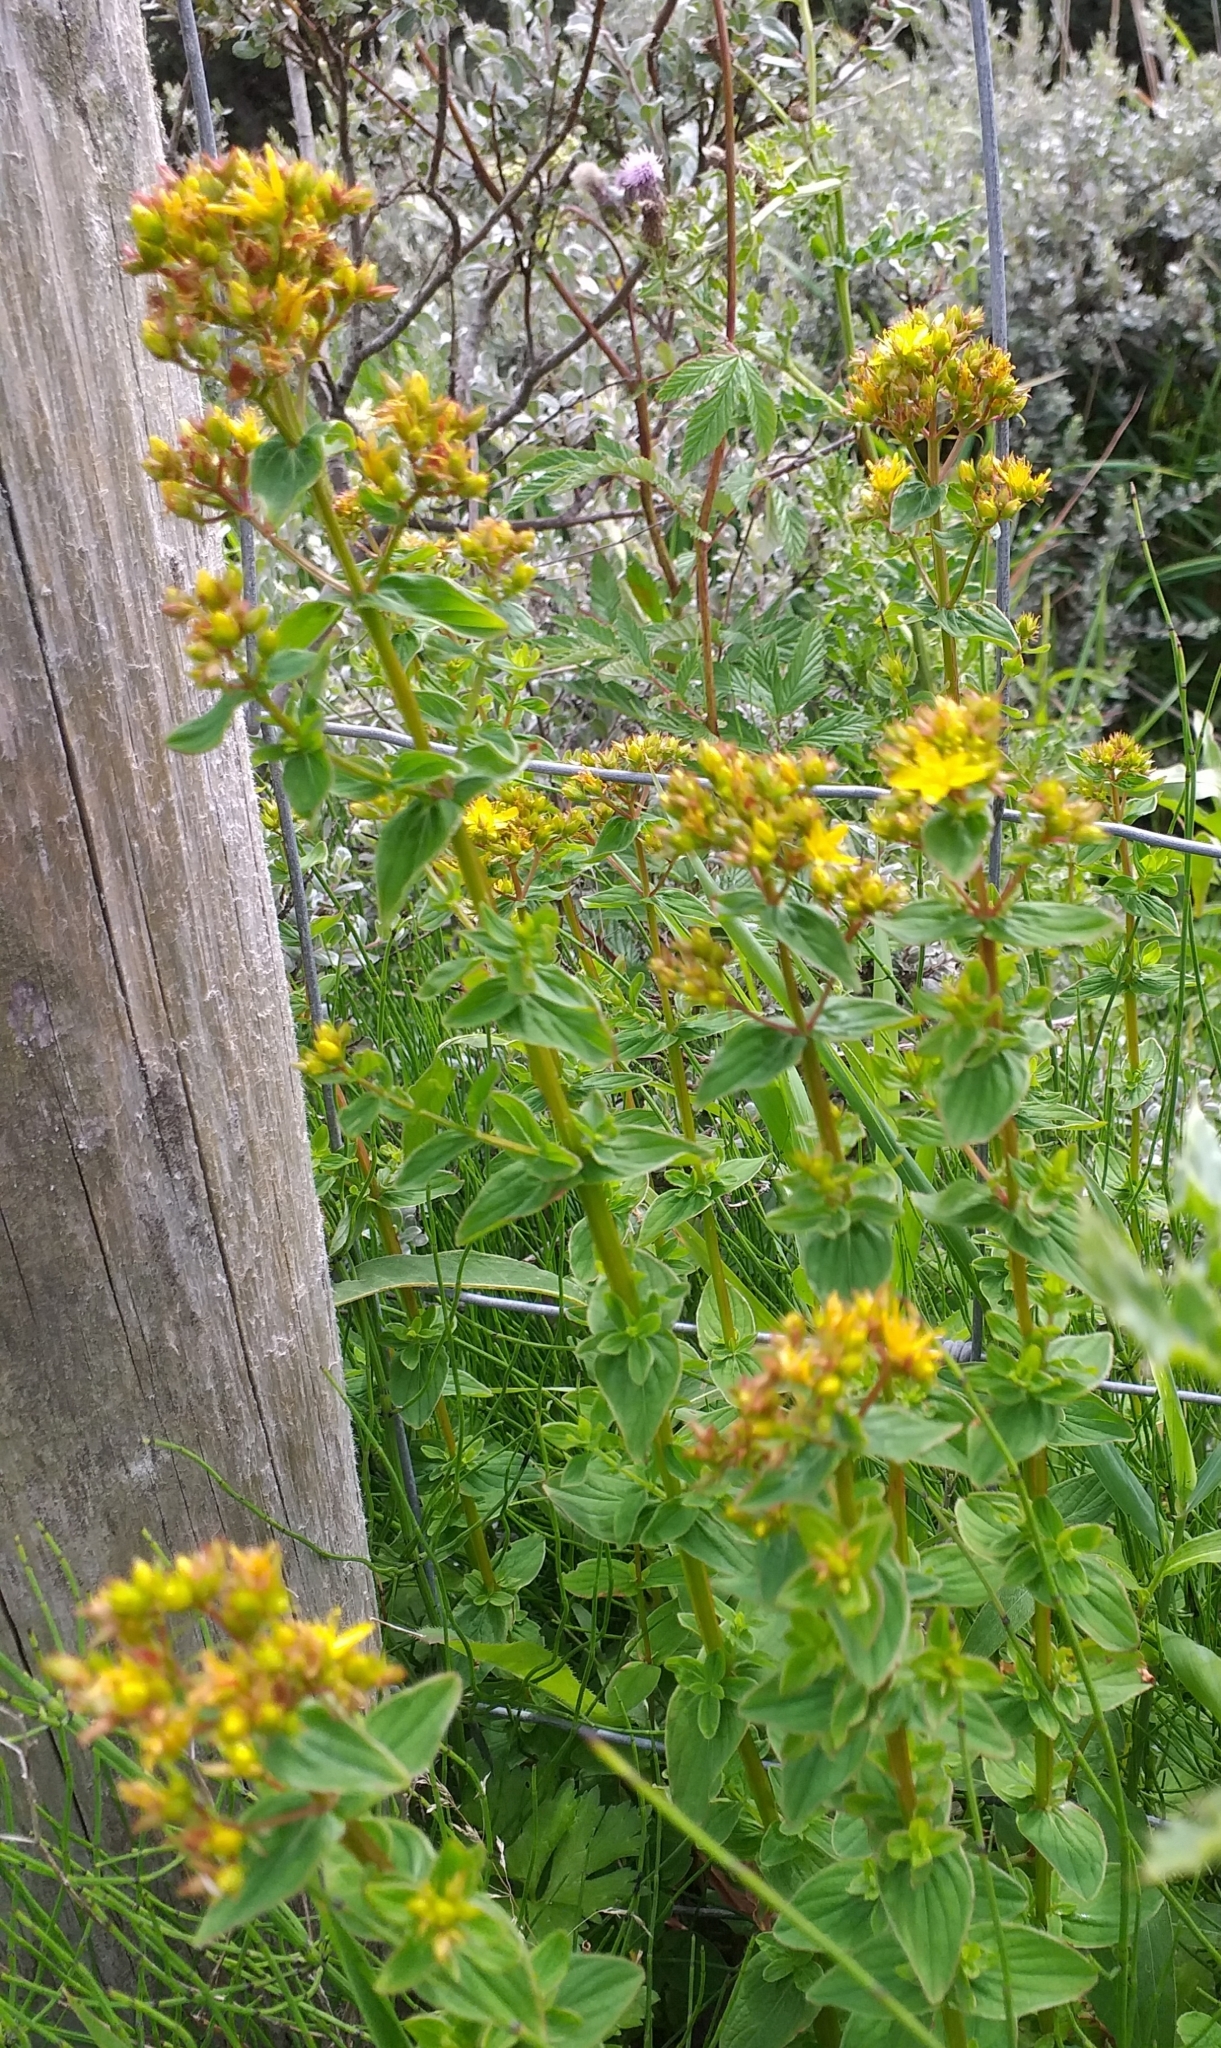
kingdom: Plantae
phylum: Tracheophyta
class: Magnoliopsida
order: Malpighiales
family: Hypericaceae
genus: Hypericum
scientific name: Hypericum tetrapterum
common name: Square-stalked st. john's-wort
